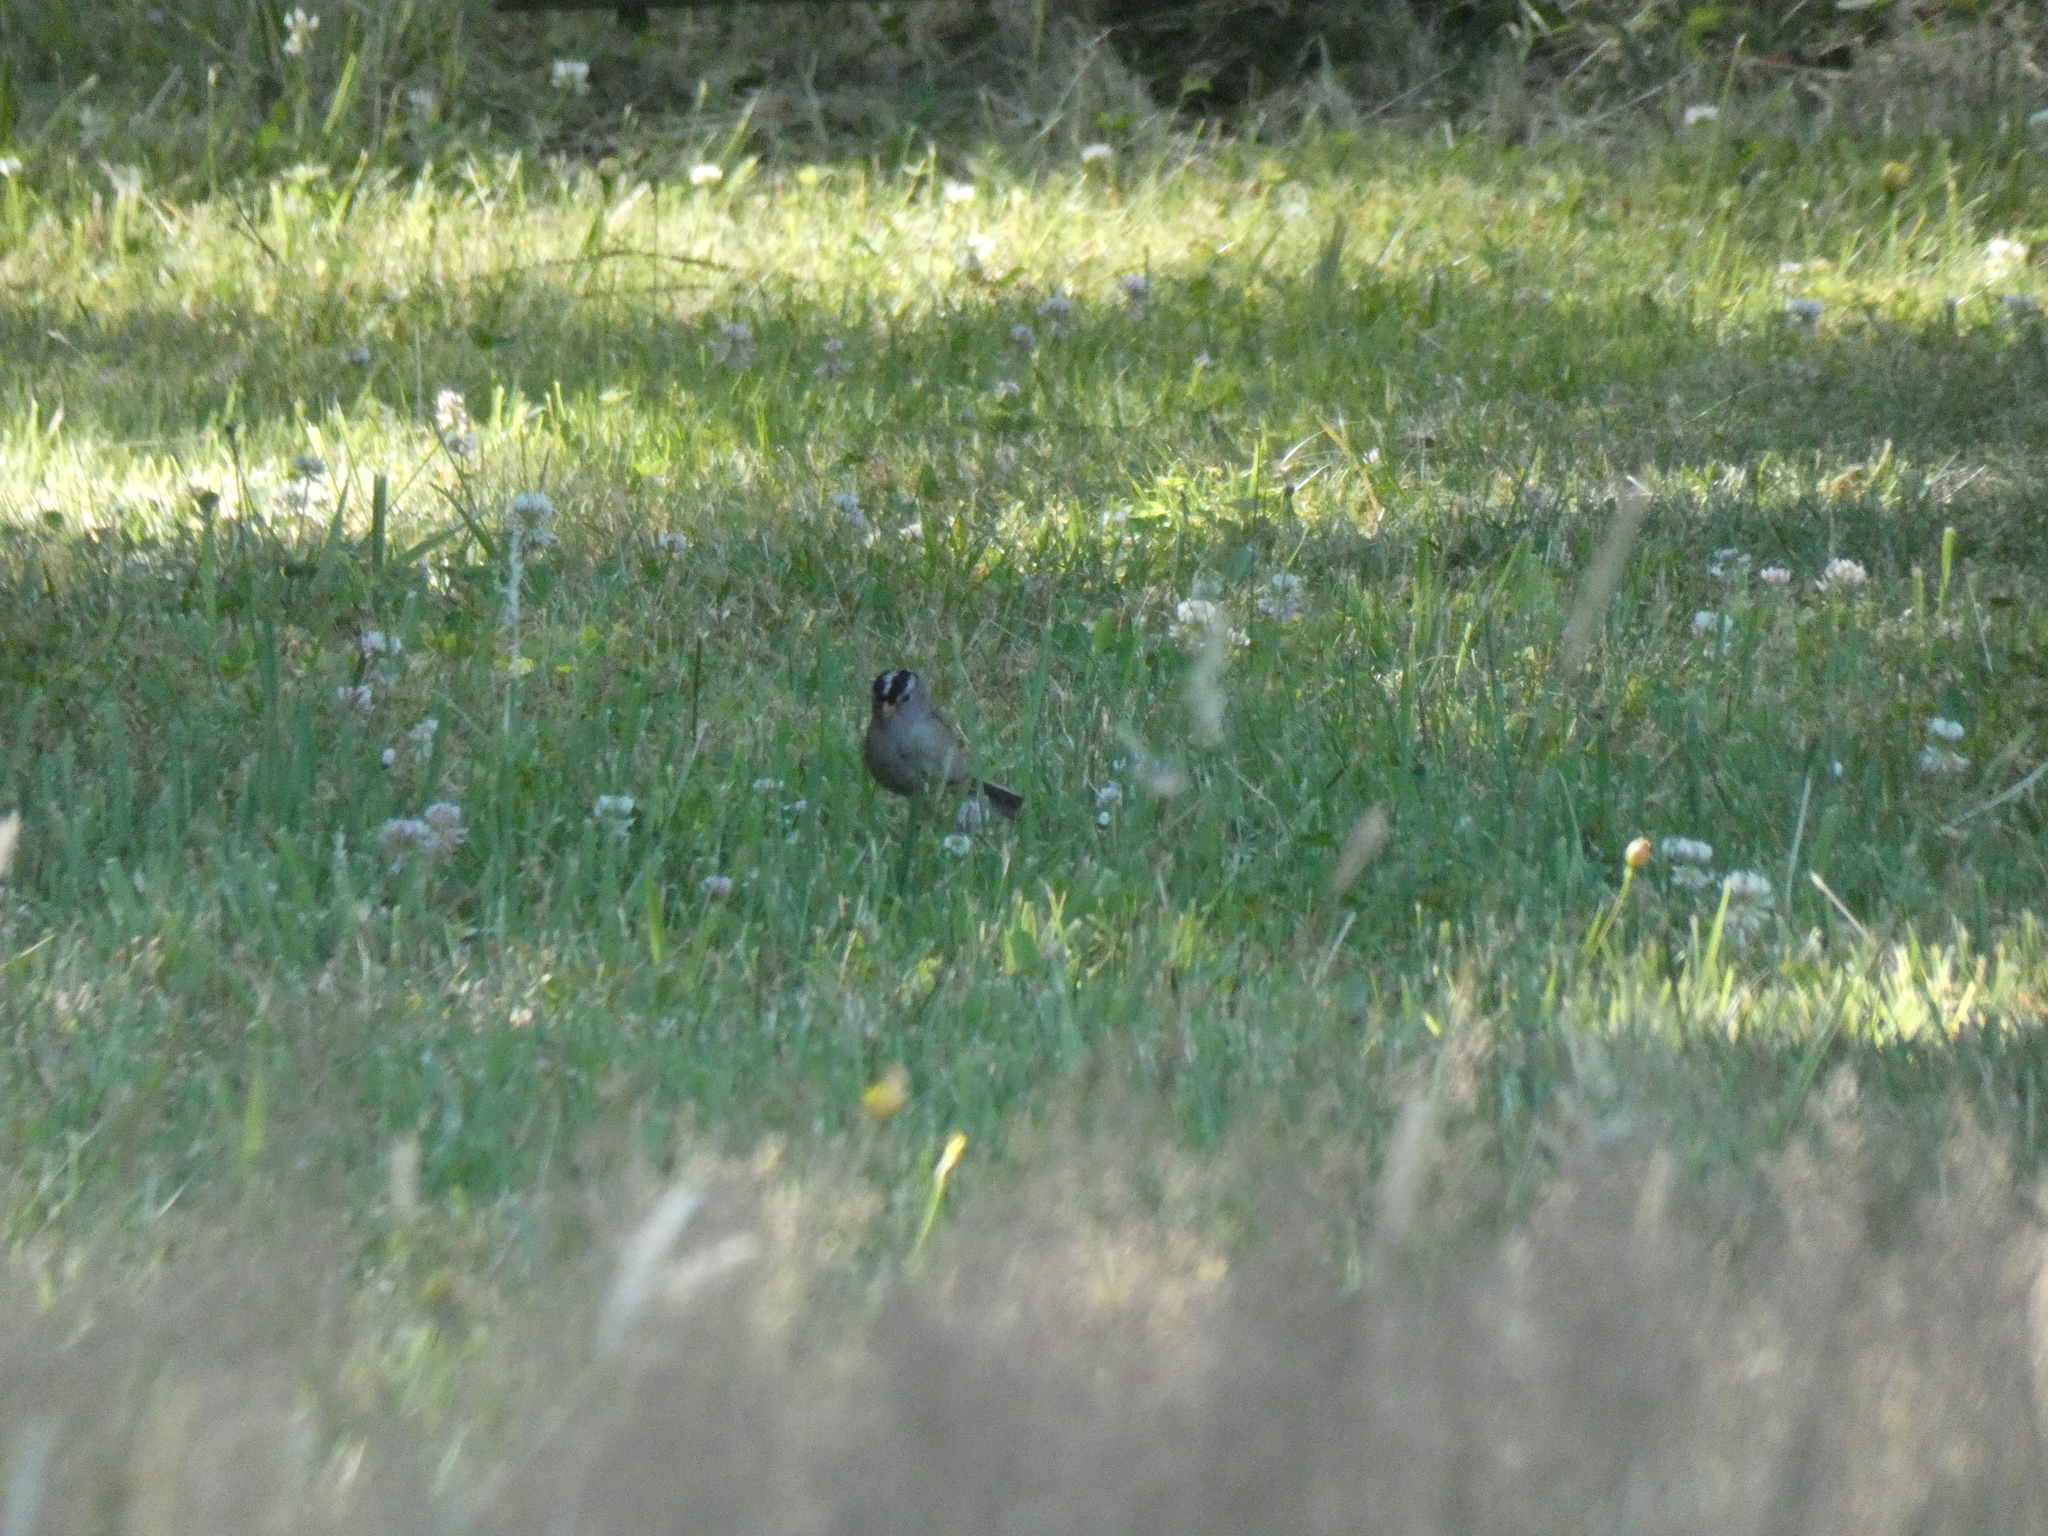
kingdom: Animalia
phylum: Chordata
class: Aves
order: Passeriformes
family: Passerellidae
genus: Zonotrichia
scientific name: Zonotrichia leucophrys
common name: White-crowned sparrow
